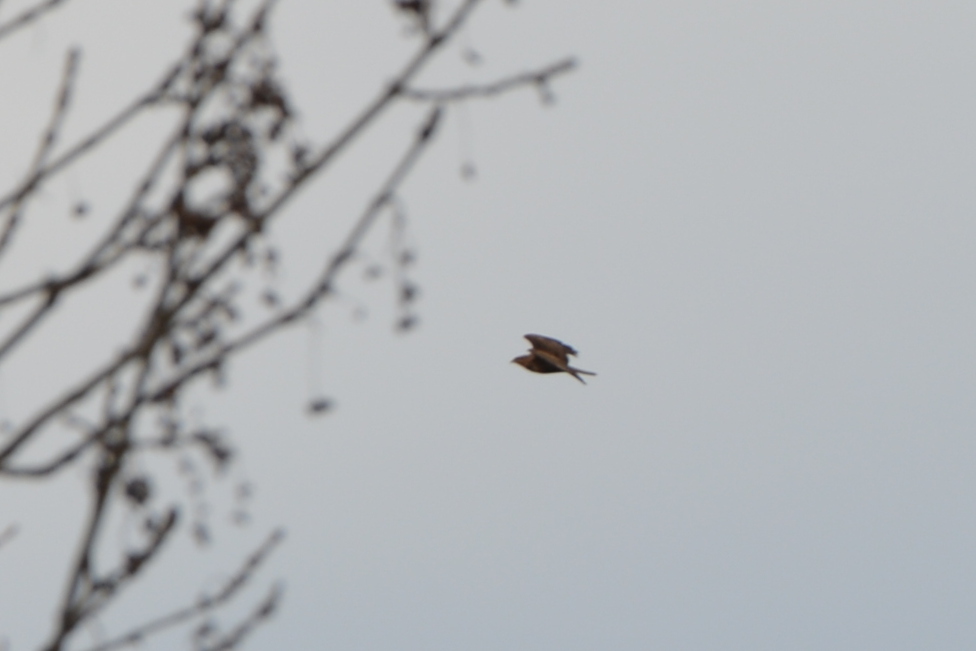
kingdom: Animalia
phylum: Chordata
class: Aves
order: Accipitriformes
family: Accipitridae
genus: Buteo
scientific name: Buteo buteo
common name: Common buzzard
